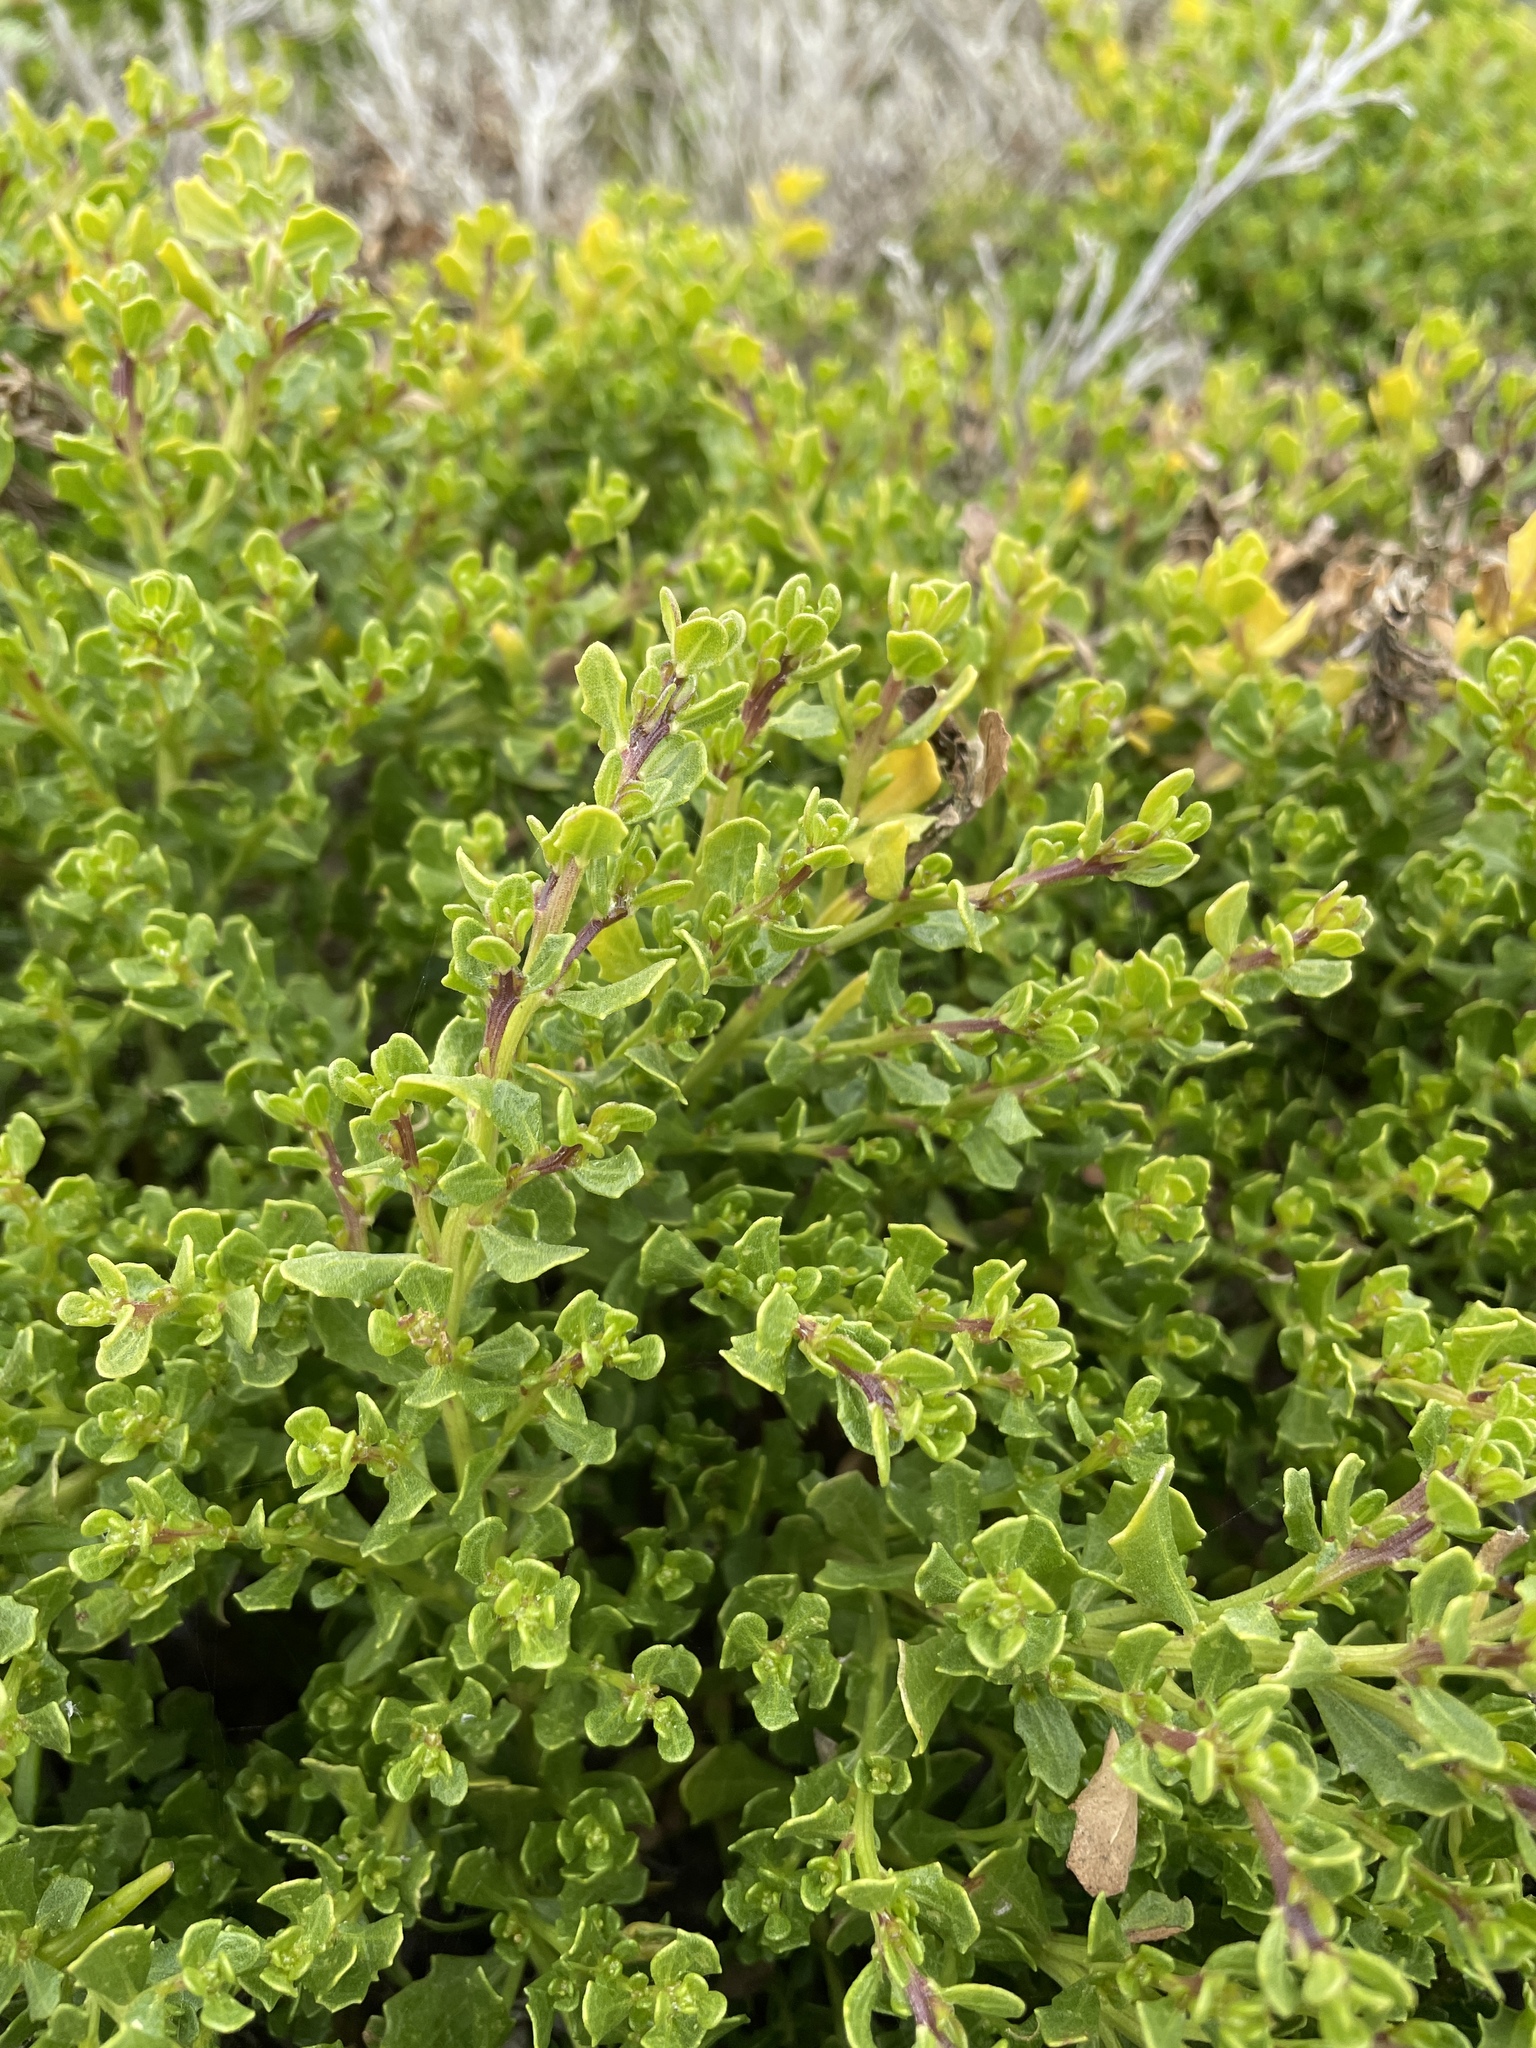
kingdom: Plantae
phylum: Tracheophyta
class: Magnoliopsida
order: Asterales
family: Asteraceae
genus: Baccharis
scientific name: Baccharis pilularis
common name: Coyotebrush
